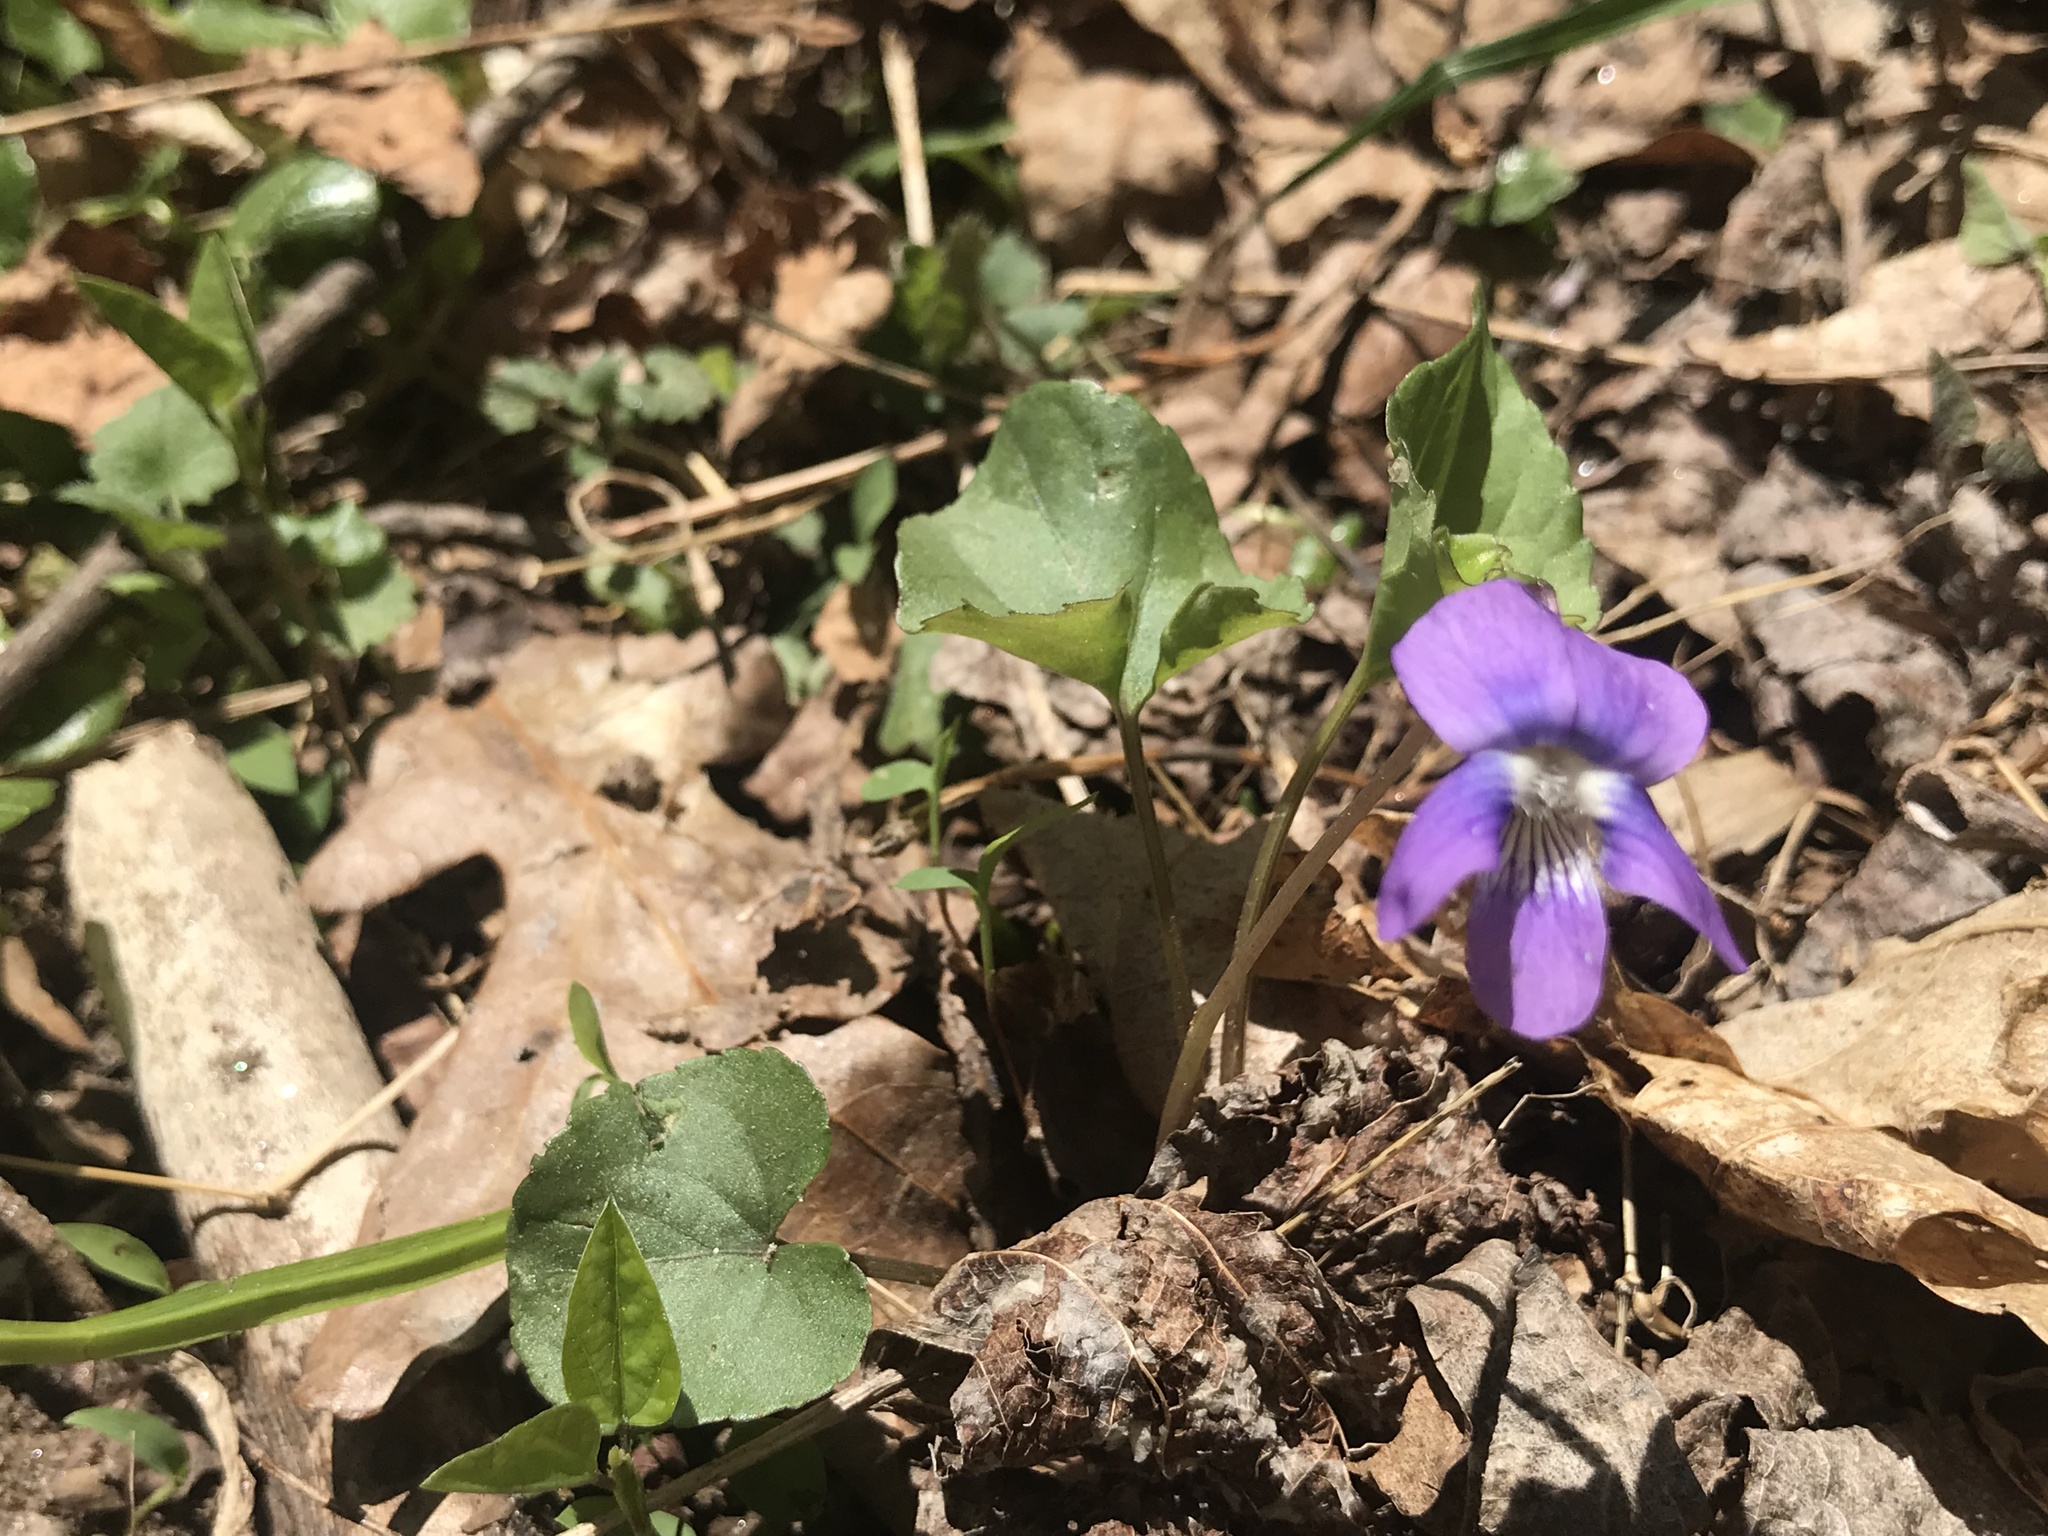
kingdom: Plantae
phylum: Tracheophyta
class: Magnoliopsida
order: Malpighiales
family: Violaceae
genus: Viola
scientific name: Viola sororia
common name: Dooryard violet
